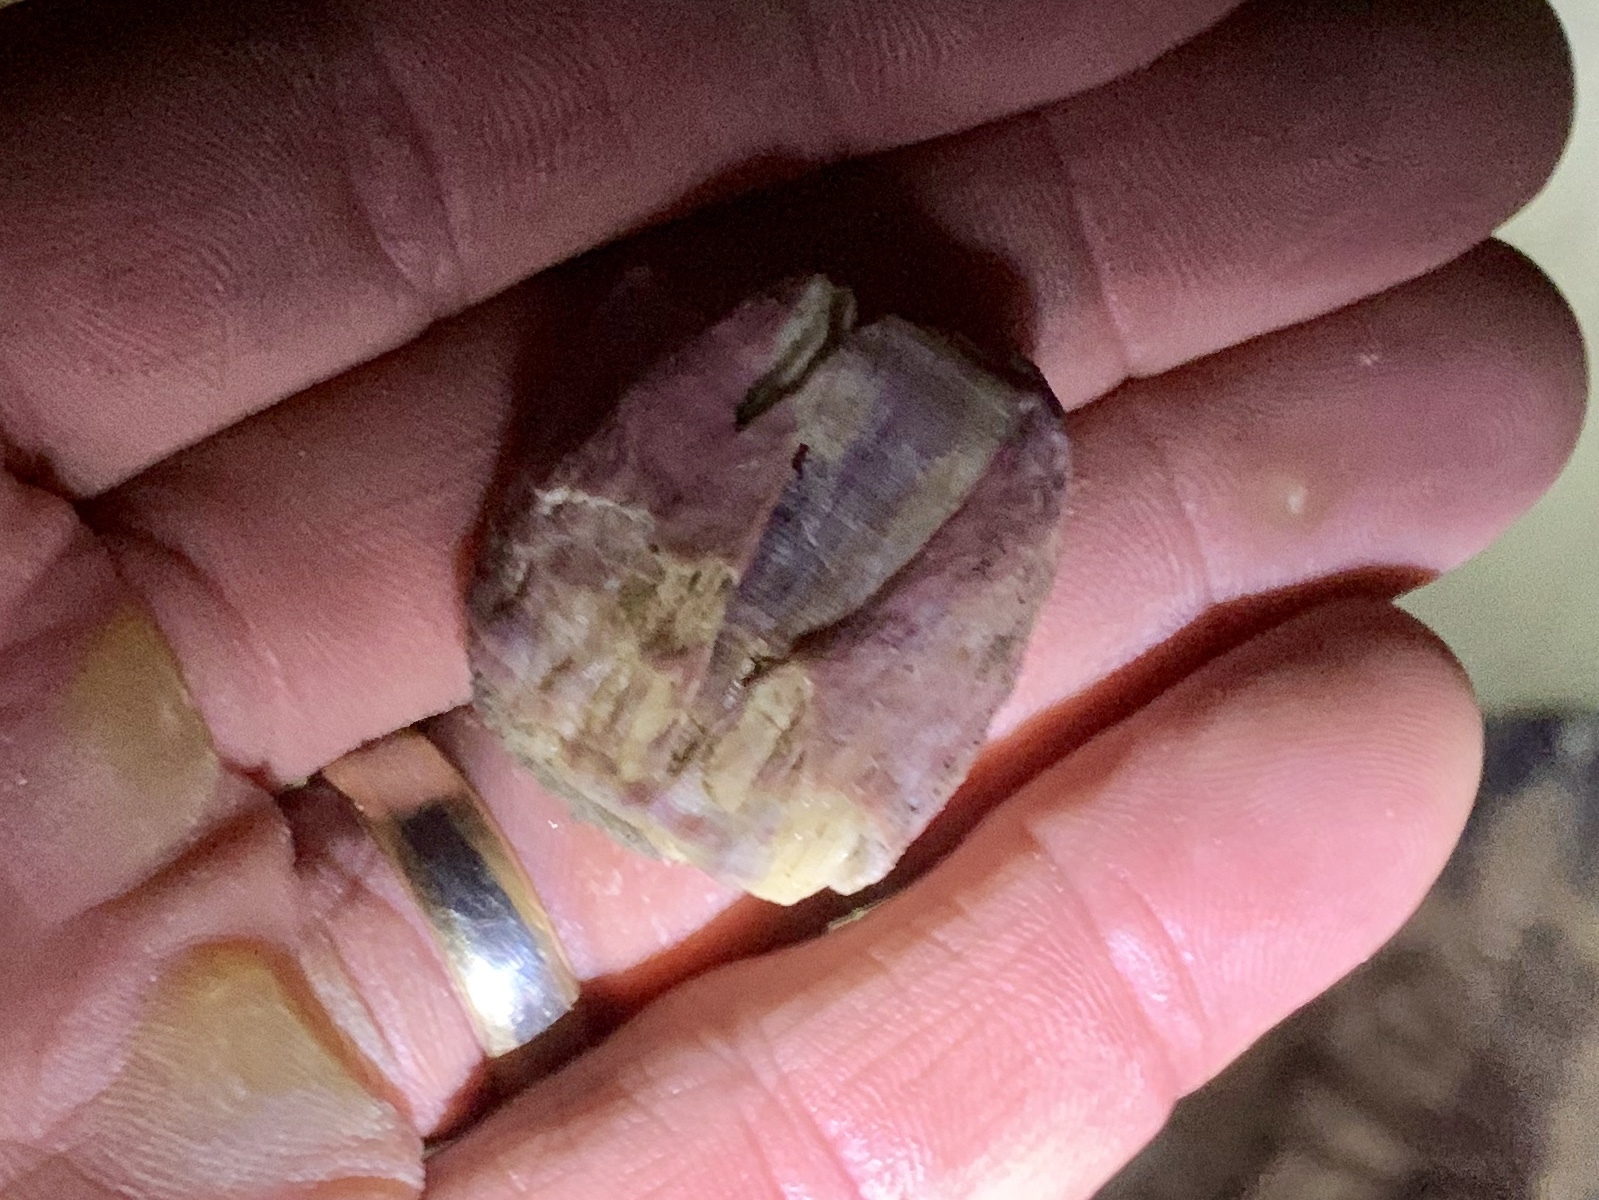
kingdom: Animalia
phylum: Arthropoda
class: Maxillopoda
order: Sessilia
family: Balanidae
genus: Megabalanus
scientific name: Megabalanus tintinnabulum
